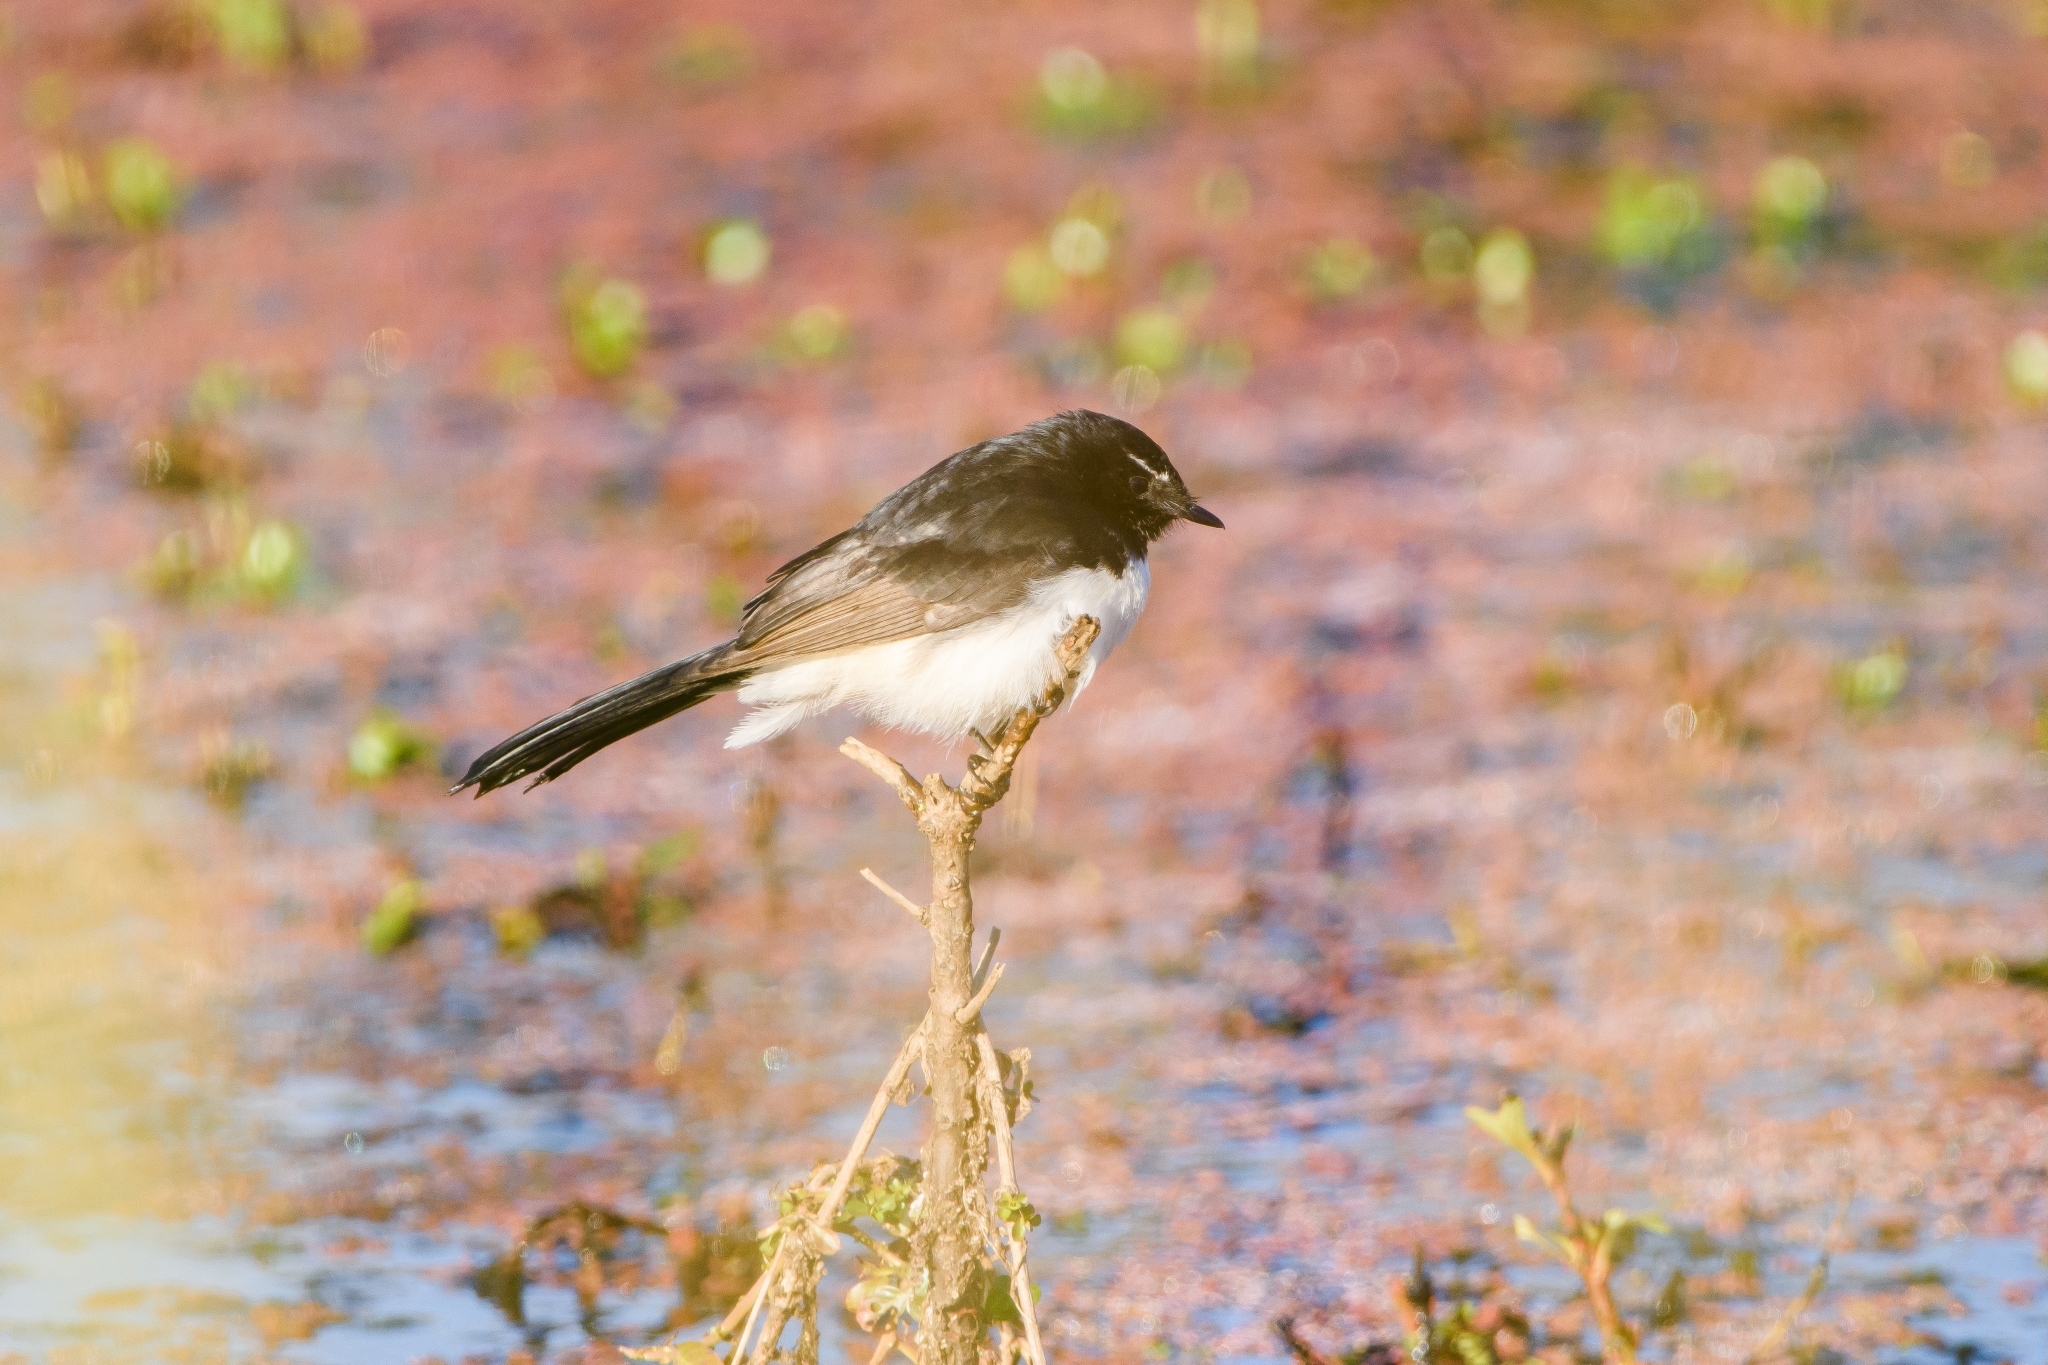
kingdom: Animalia
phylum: Chordata
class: Aves
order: Passeriformes
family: Rhipiduridae
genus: Rhipidura
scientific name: Rhipidura leucophrys
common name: Willie wagtail
